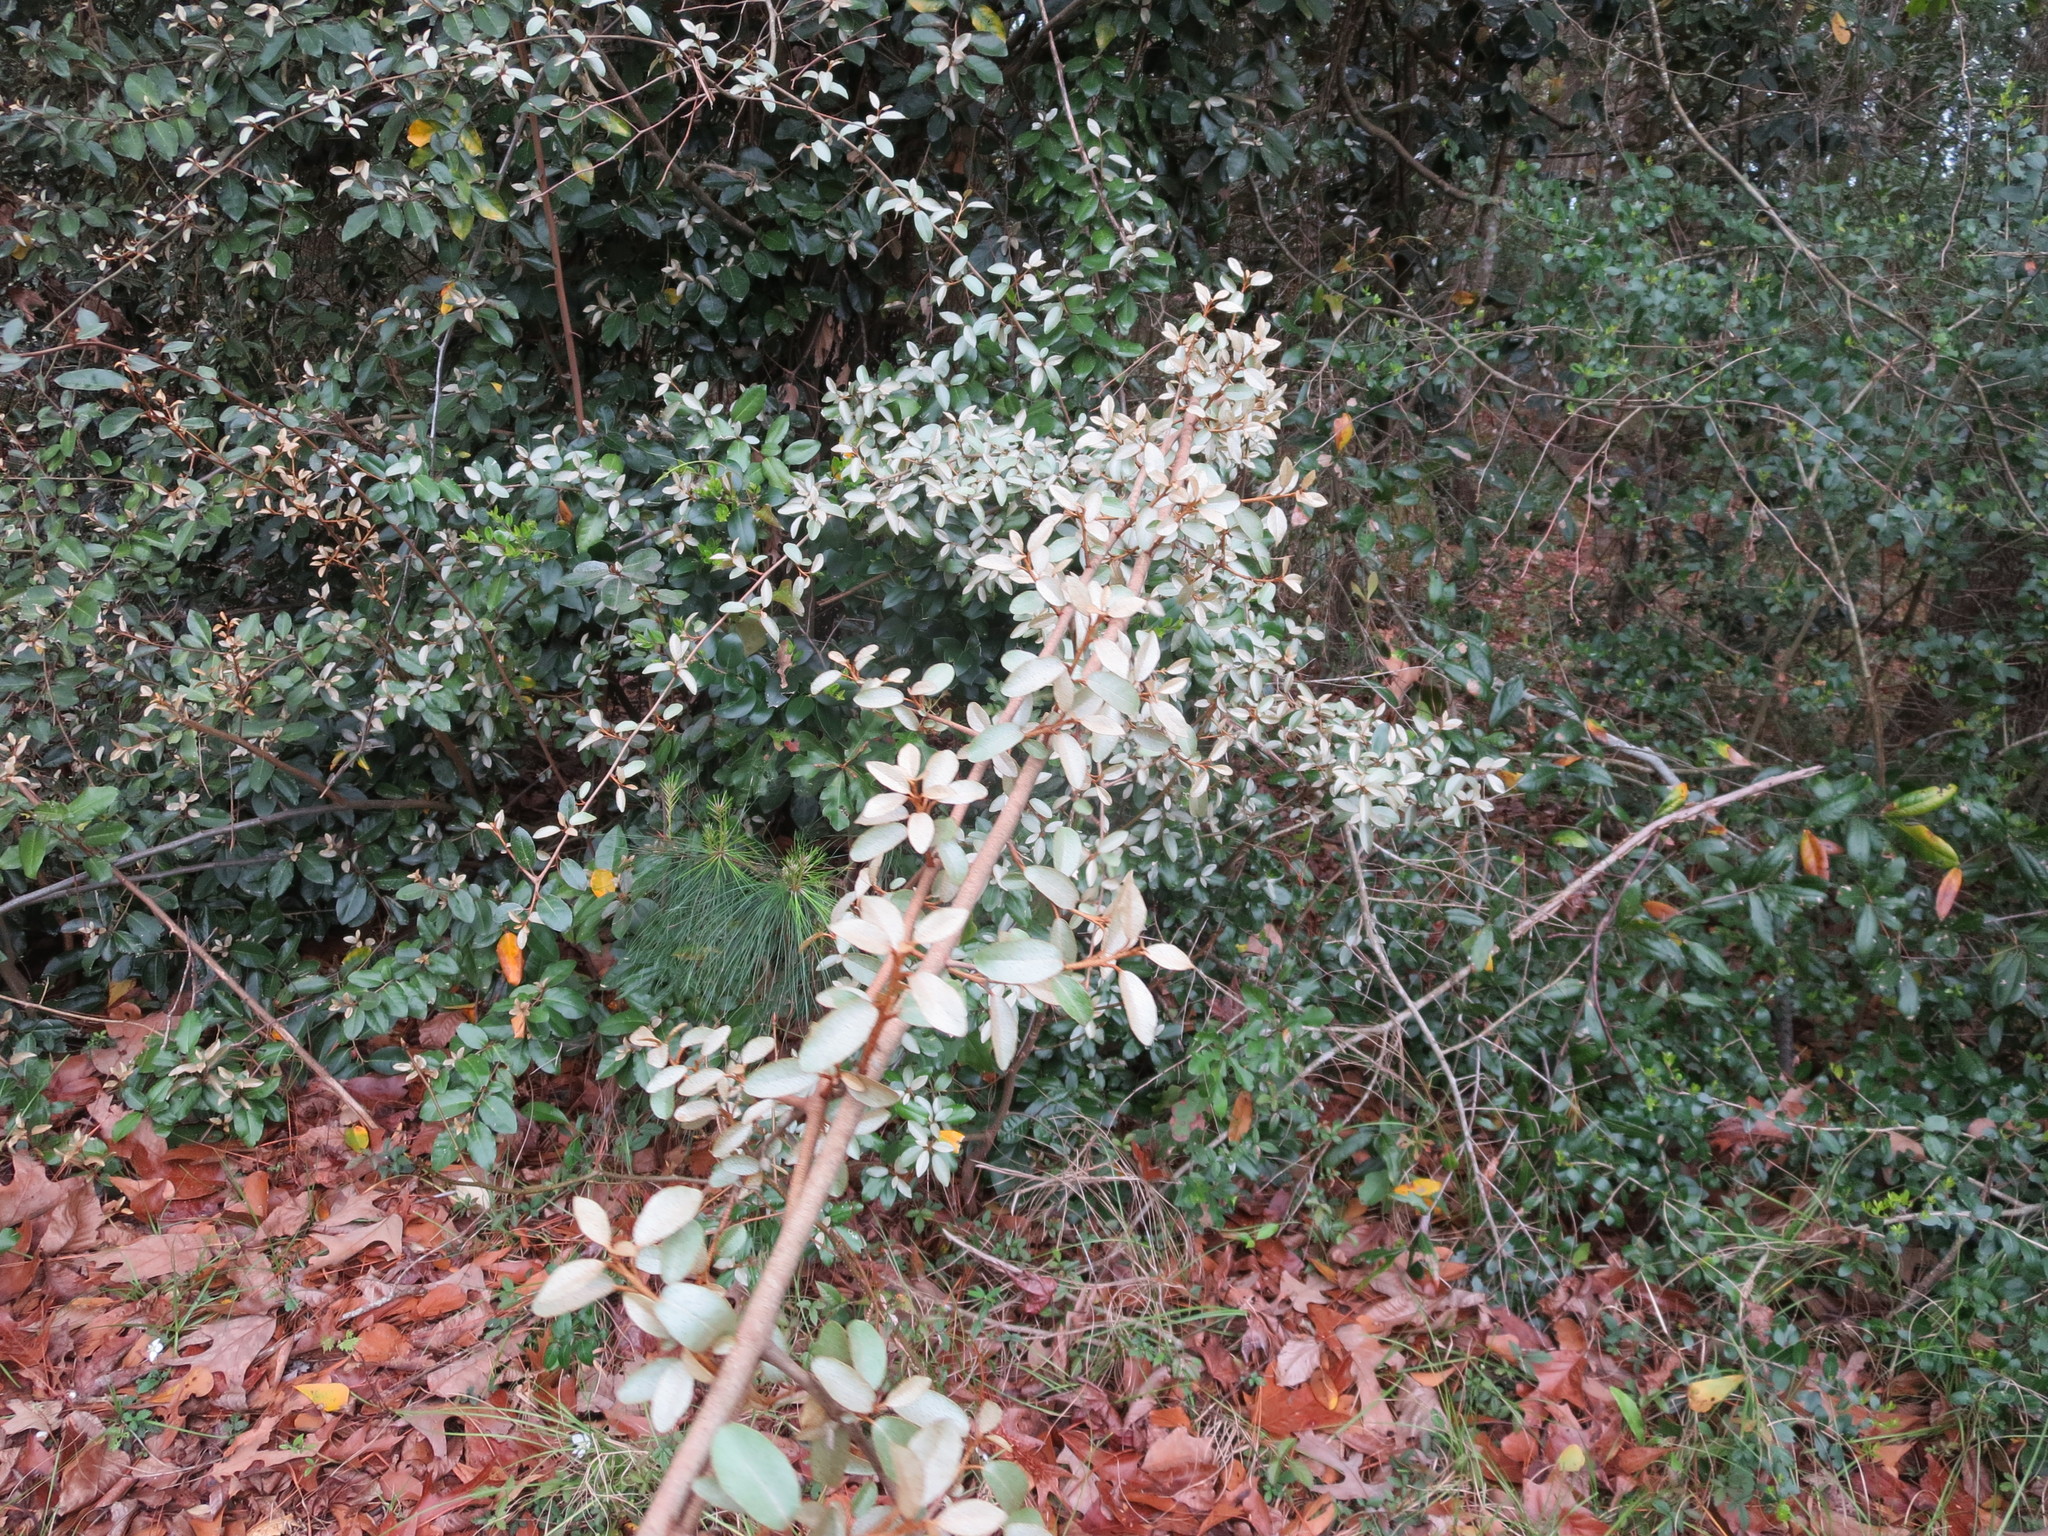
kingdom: Plantae
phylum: Tracheophyta
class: Magnoliopsida
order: Rosales
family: Elaeagnaceae
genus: Elaeagnus
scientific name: Elaeagnus pungens
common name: Spiny oleaster
